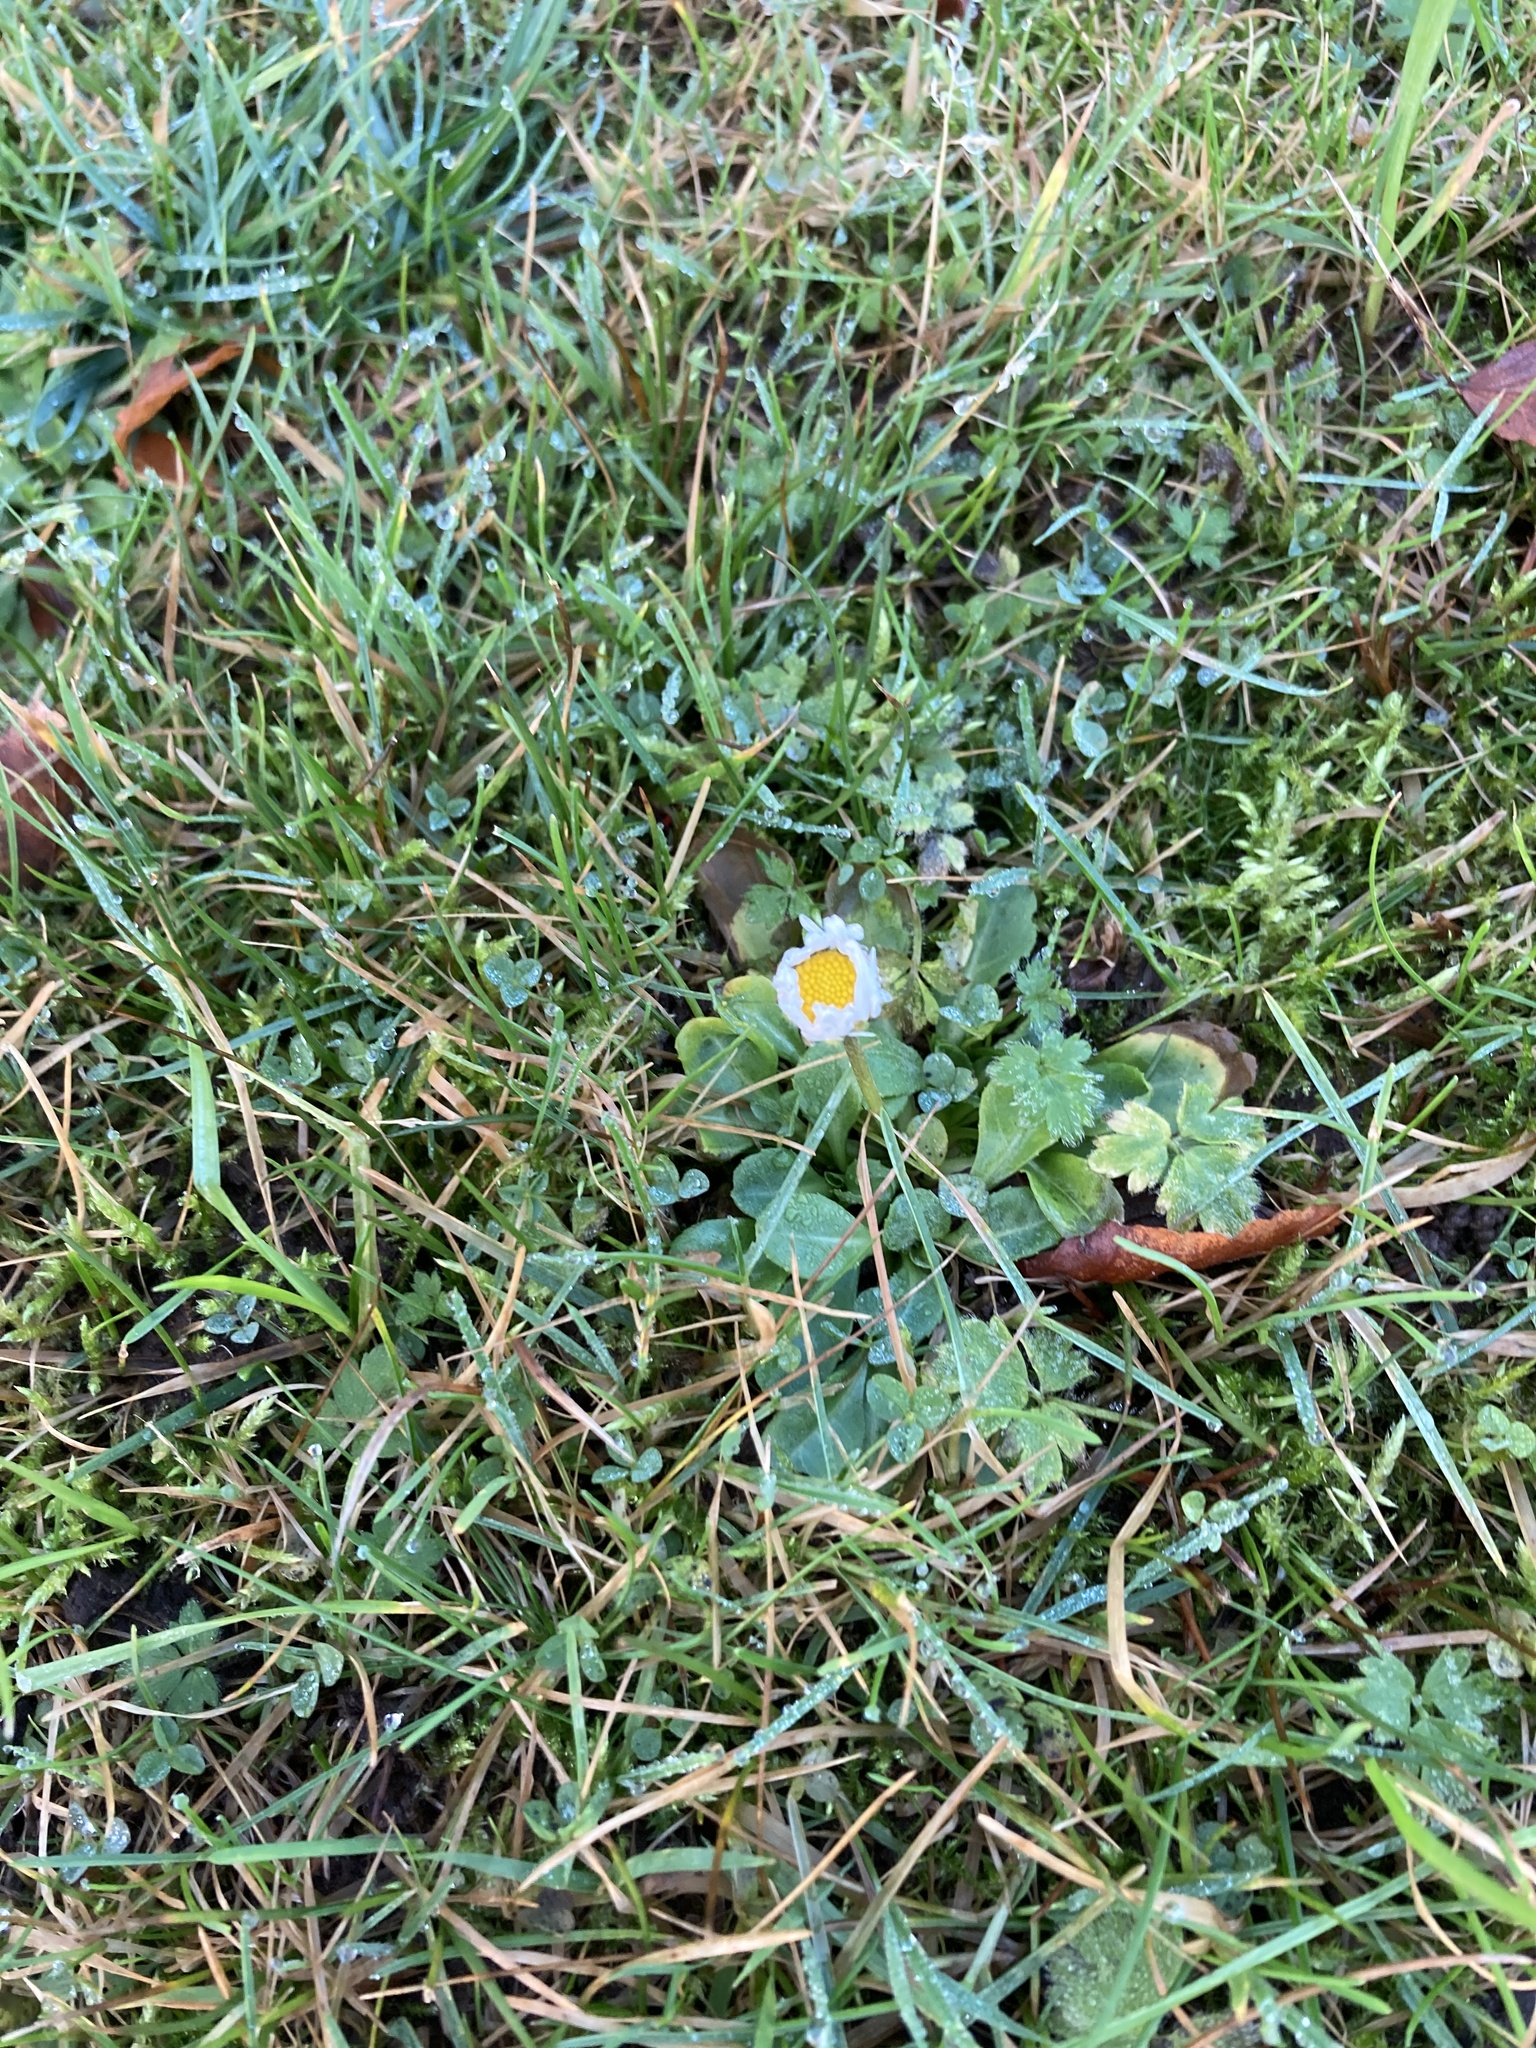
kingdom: Plantae
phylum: Tracheophyta
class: Magnoliopsida
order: Asterales
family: Asteraceae
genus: Bellis
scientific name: Bellis perennis
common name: Lawndaisy
